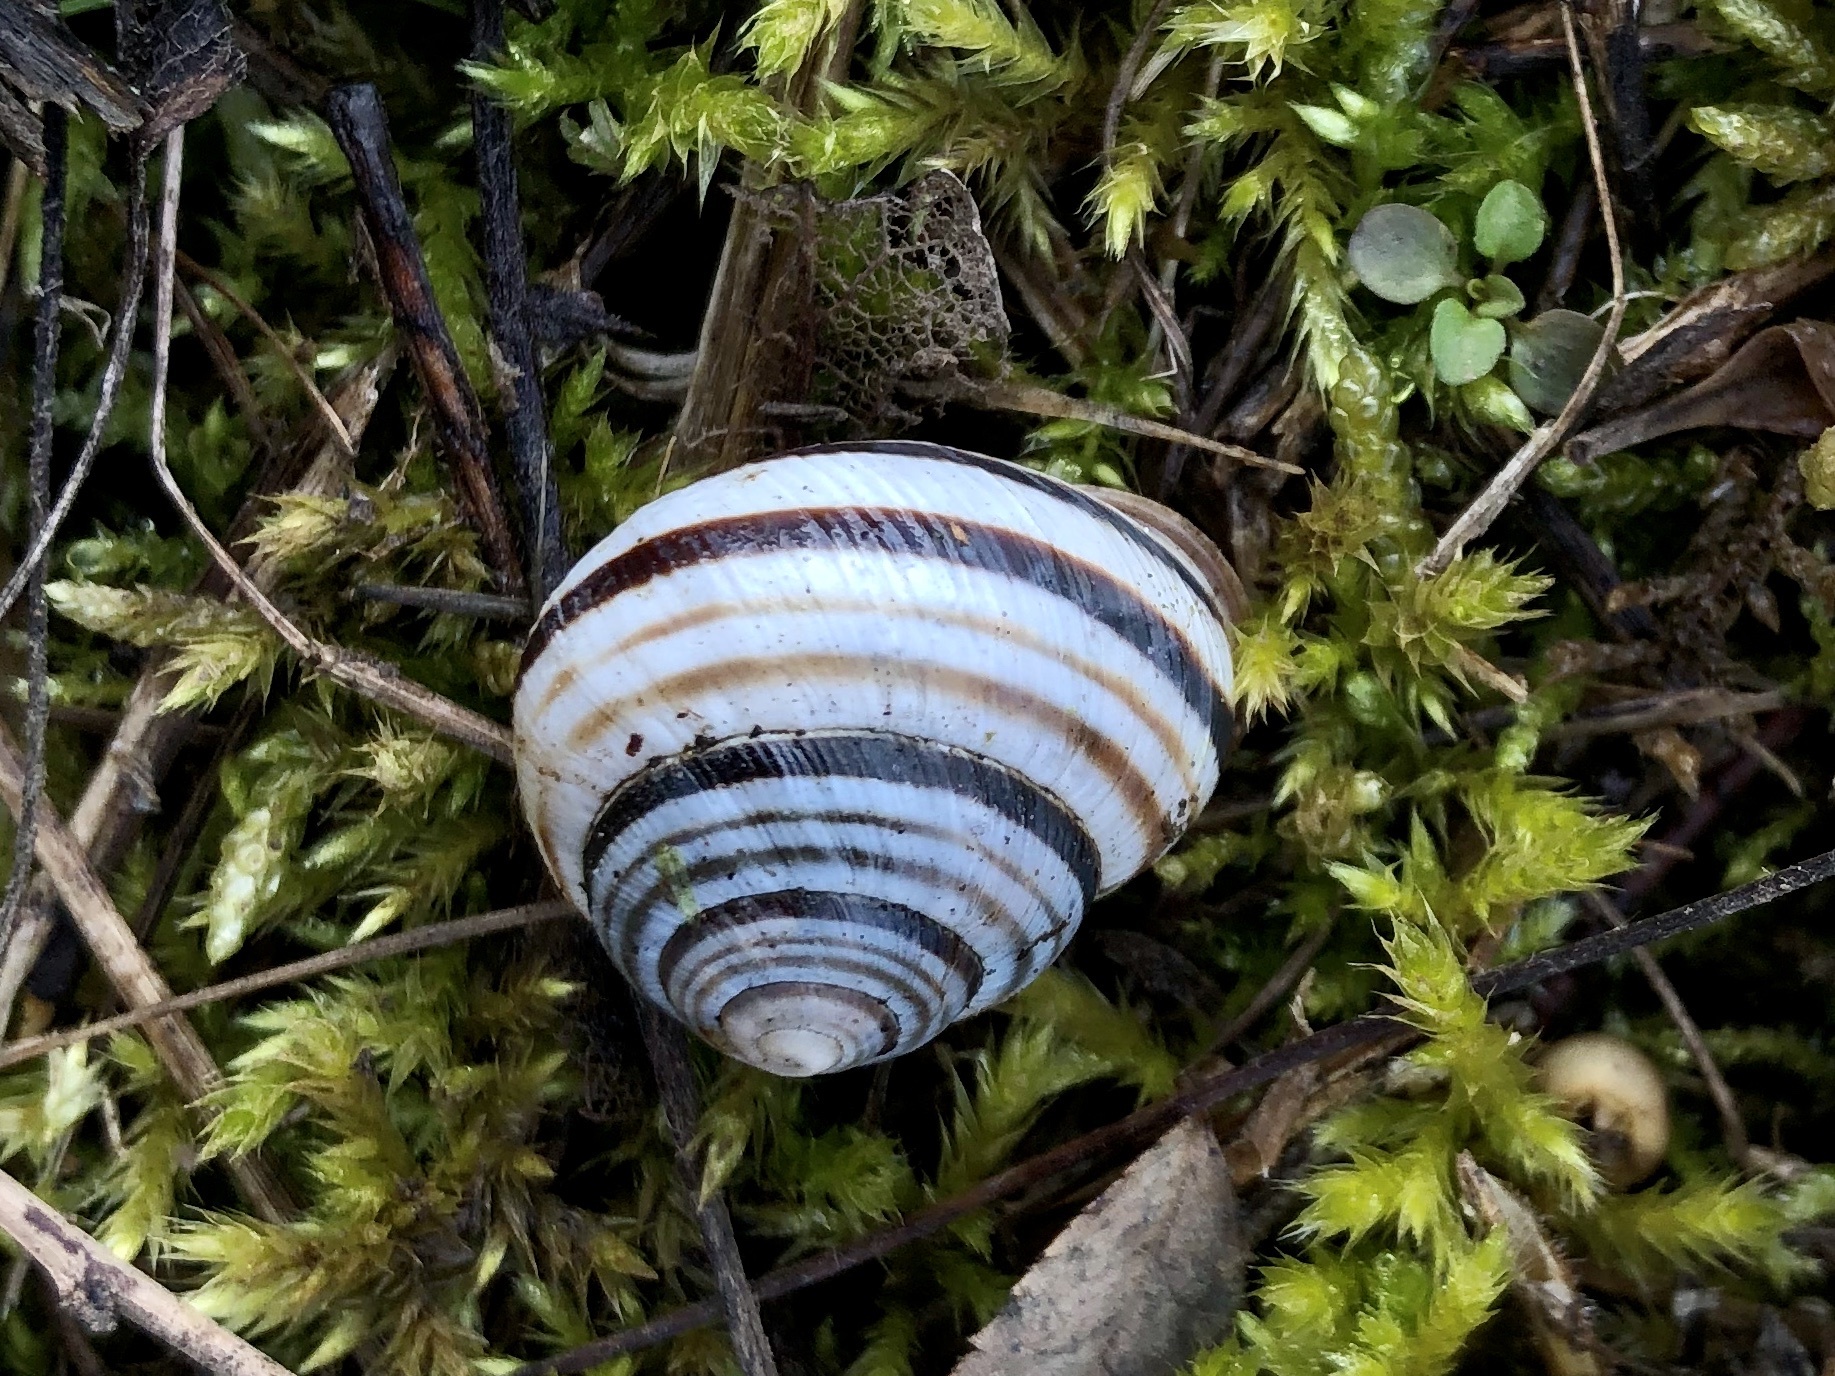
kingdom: Animalia
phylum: Mollusca
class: Gastropoda
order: Stylommatophora
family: Helicidae
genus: Caucasotachea
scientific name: Caucasotachea vindobonensis
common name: European helicid land snail
